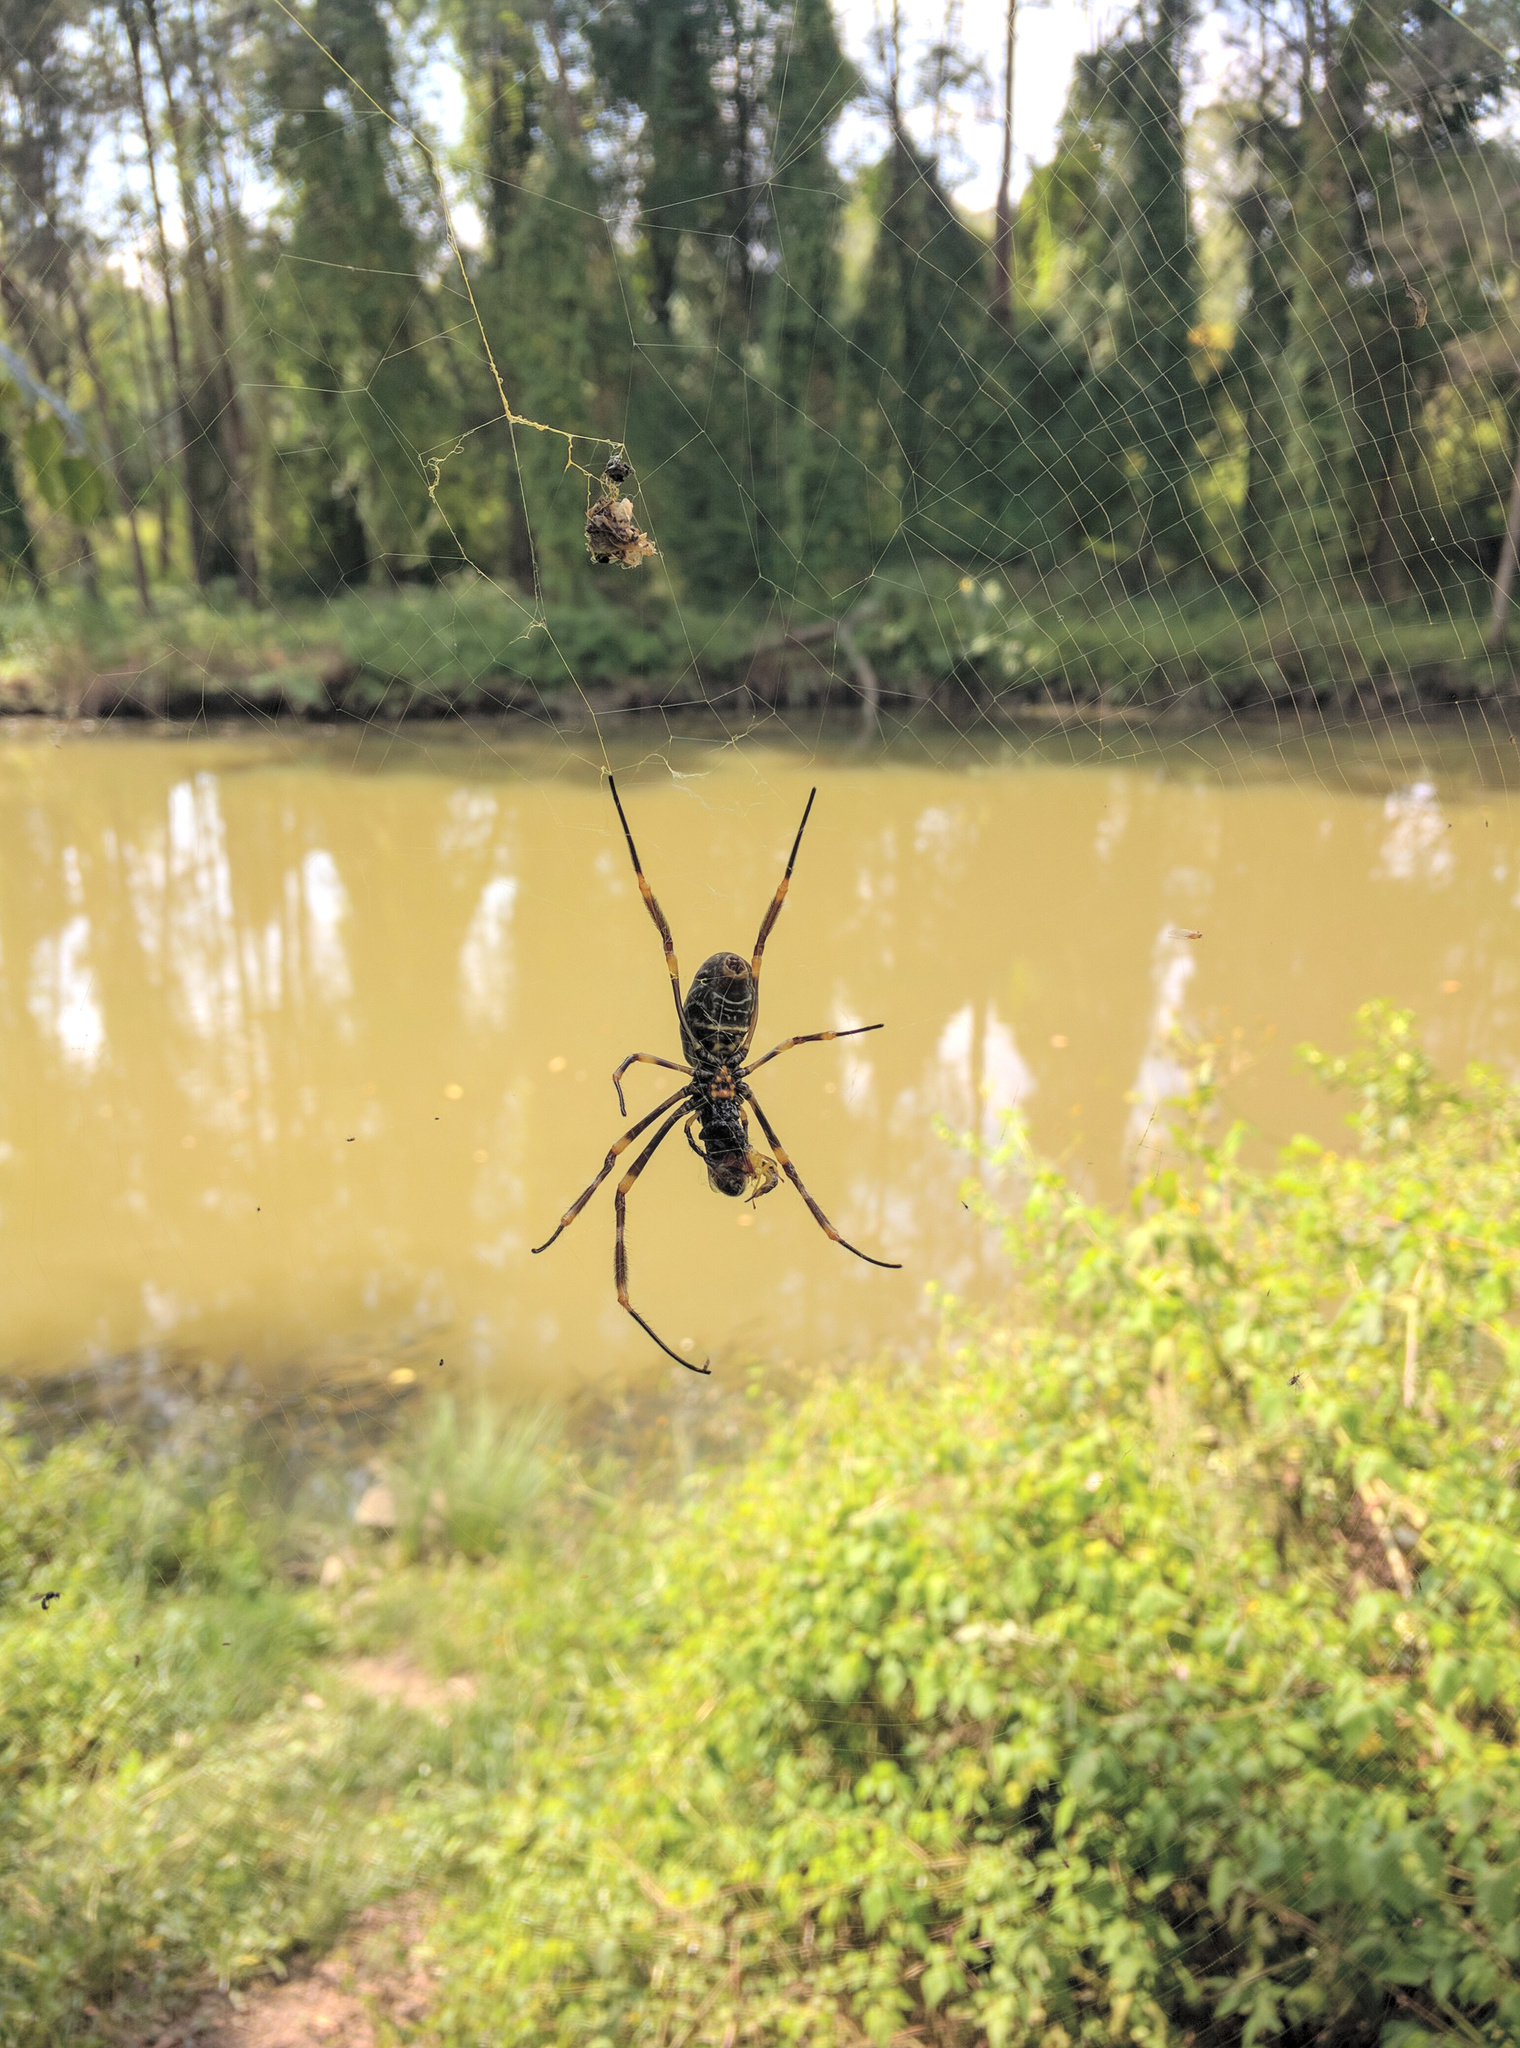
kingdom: Animalia
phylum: Arthropoda
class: Arachnida
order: Araneae
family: Araneidae
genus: Trichonephila
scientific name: Trichonephila plumipes
